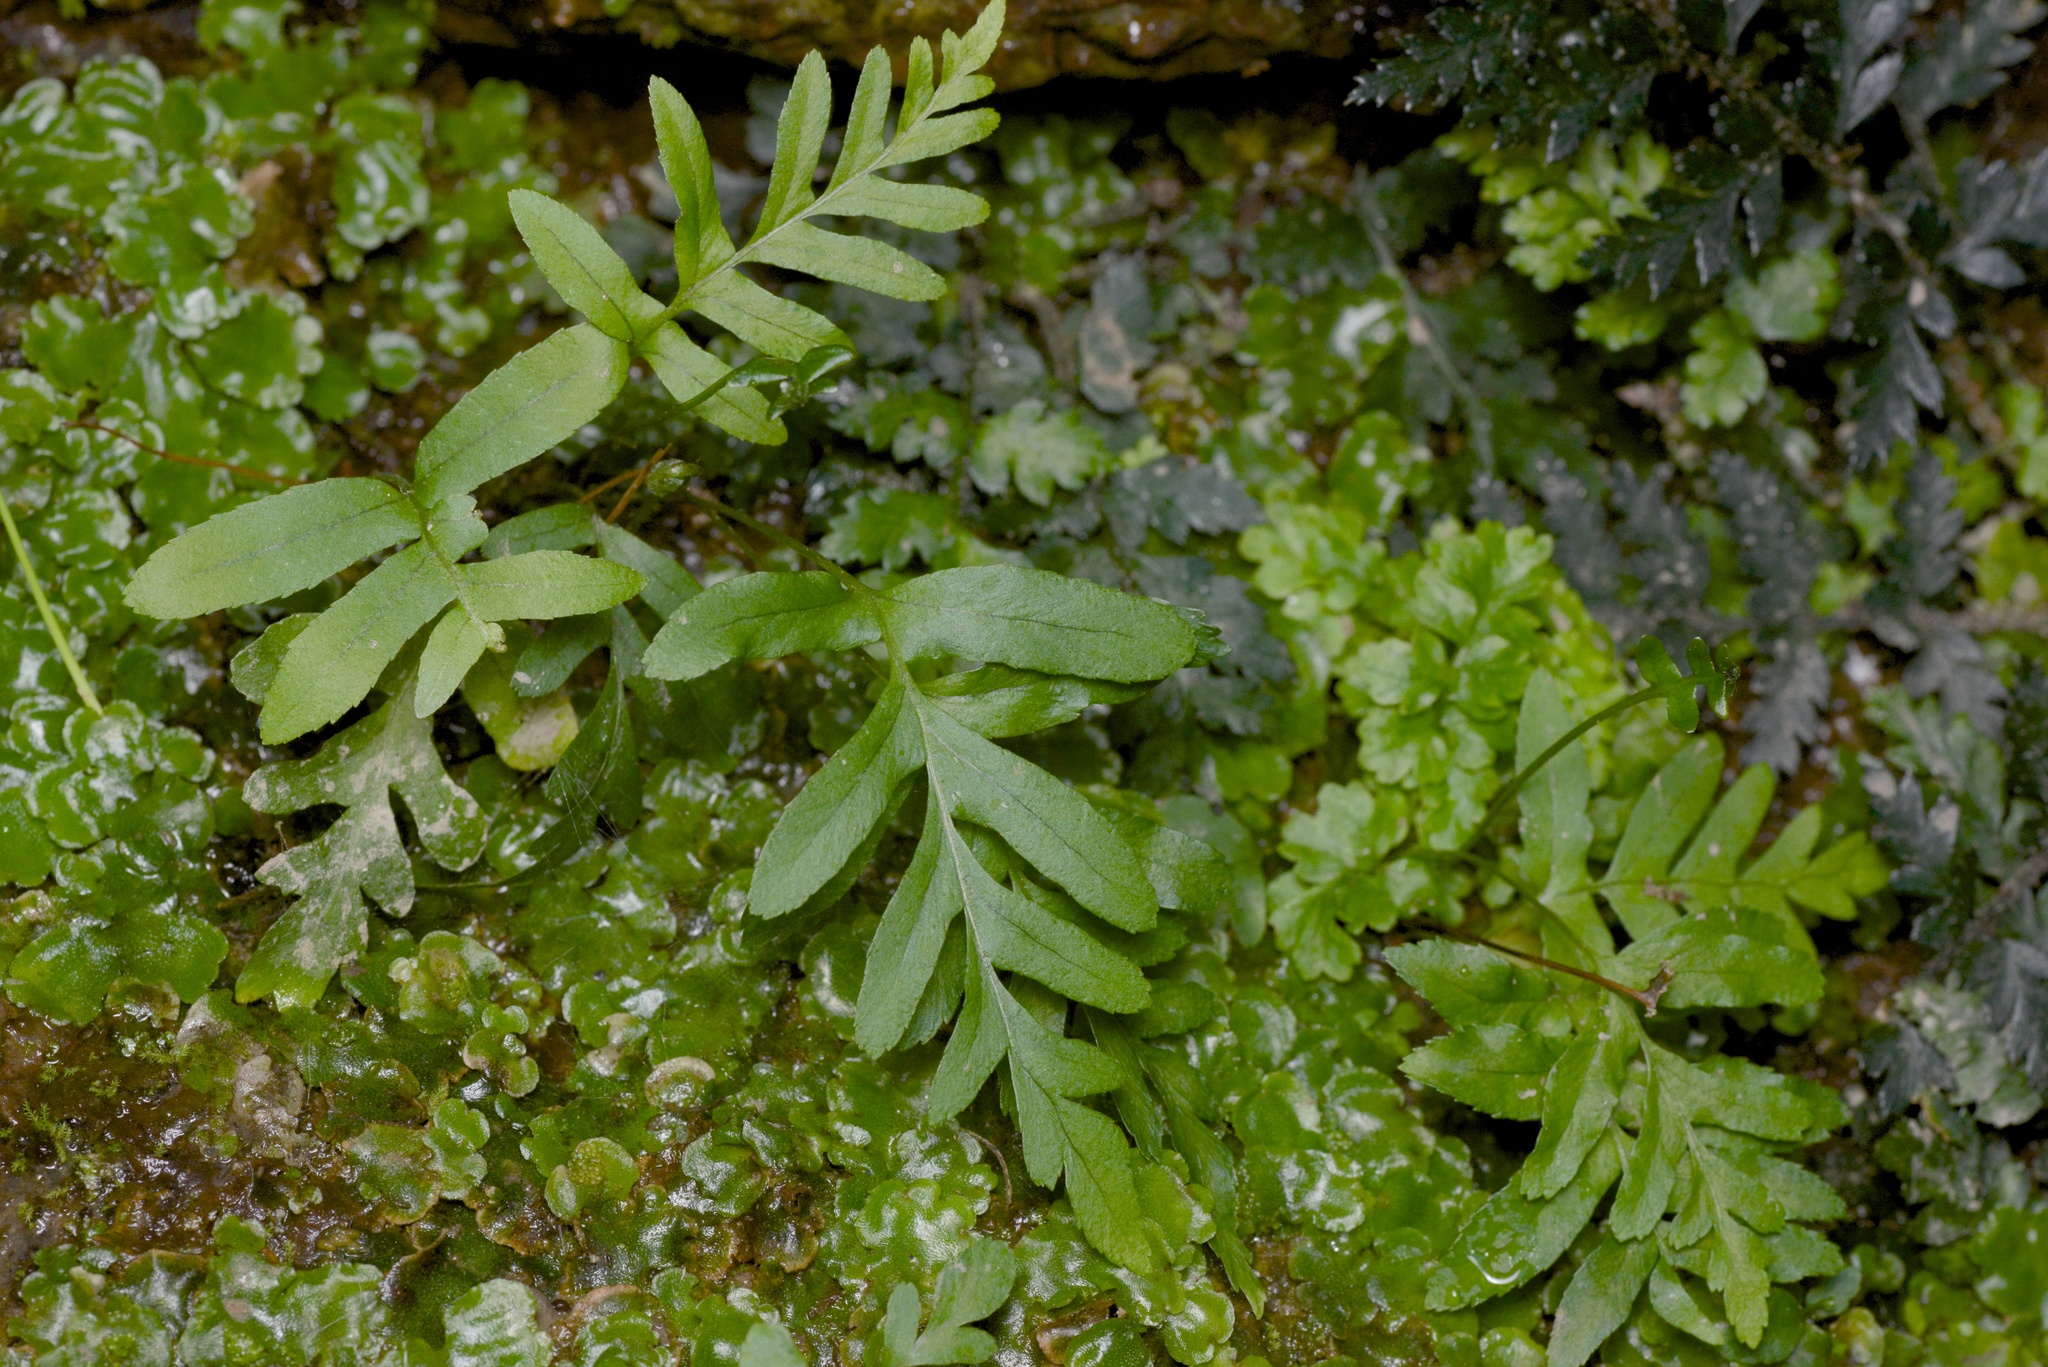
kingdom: Plantae
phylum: Tracheophyta
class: Polypodiopsida
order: Polypodiales
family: Polypodiaceae
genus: Polypodium
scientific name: Polypodium vulgare
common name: Common polypody
